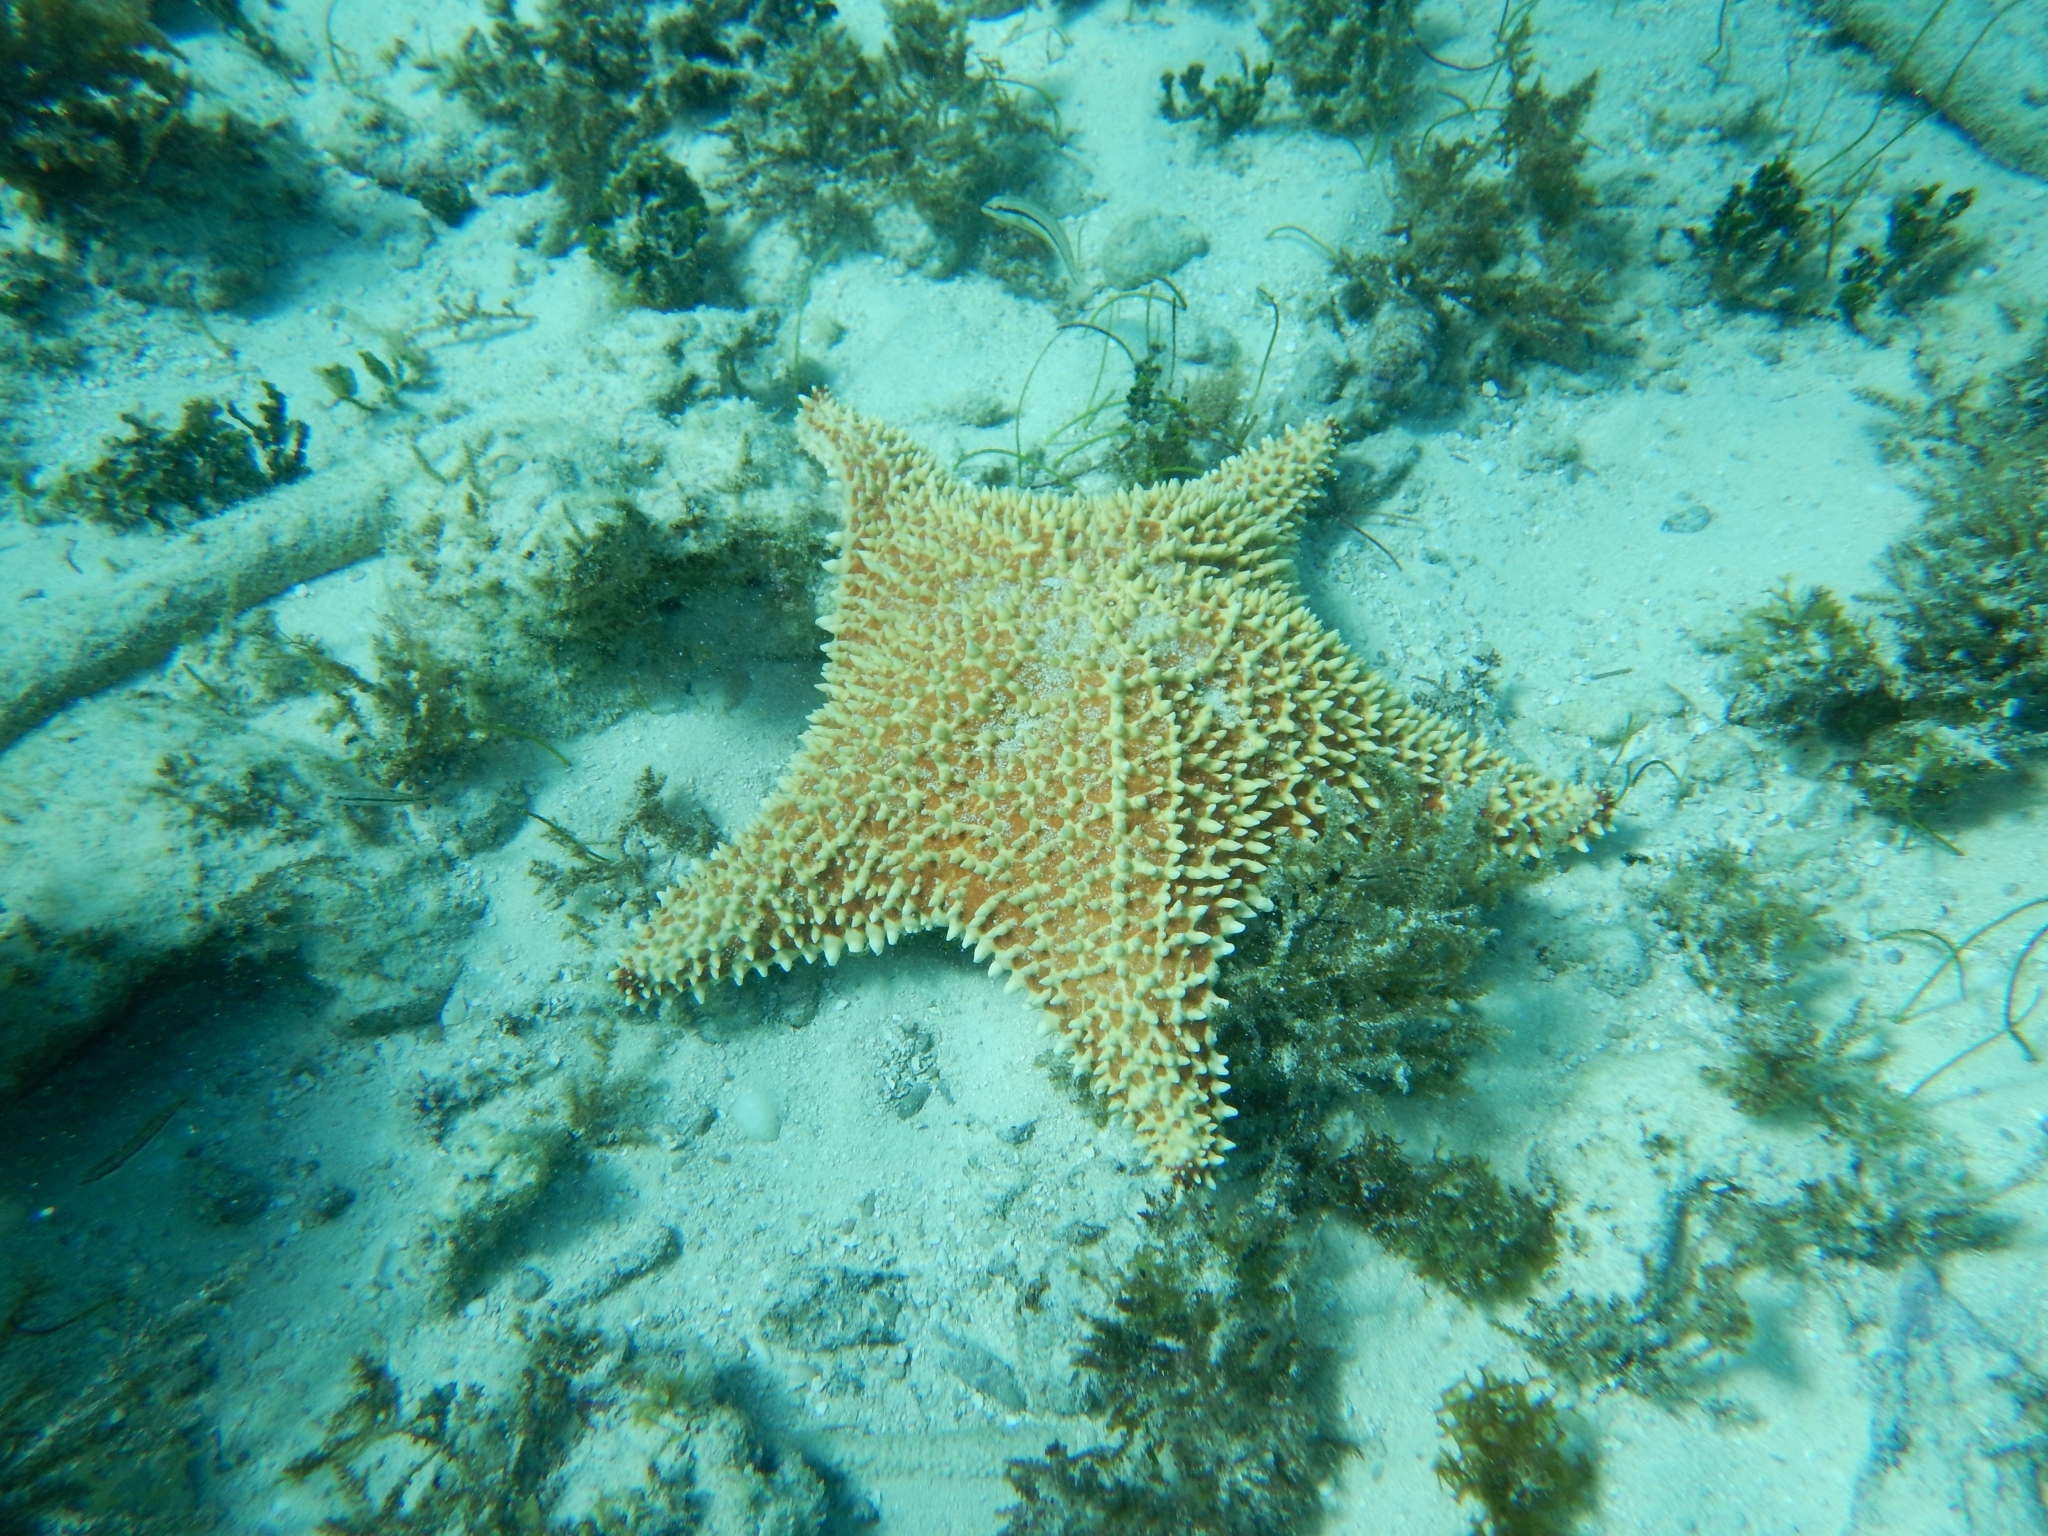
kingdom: Animalia
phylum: Echinodermata
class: Asteroidea
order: Valvatida
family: Oreasteridae
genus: Oreaster
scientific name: Oreaster reticulatus
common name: Cushion sea star
